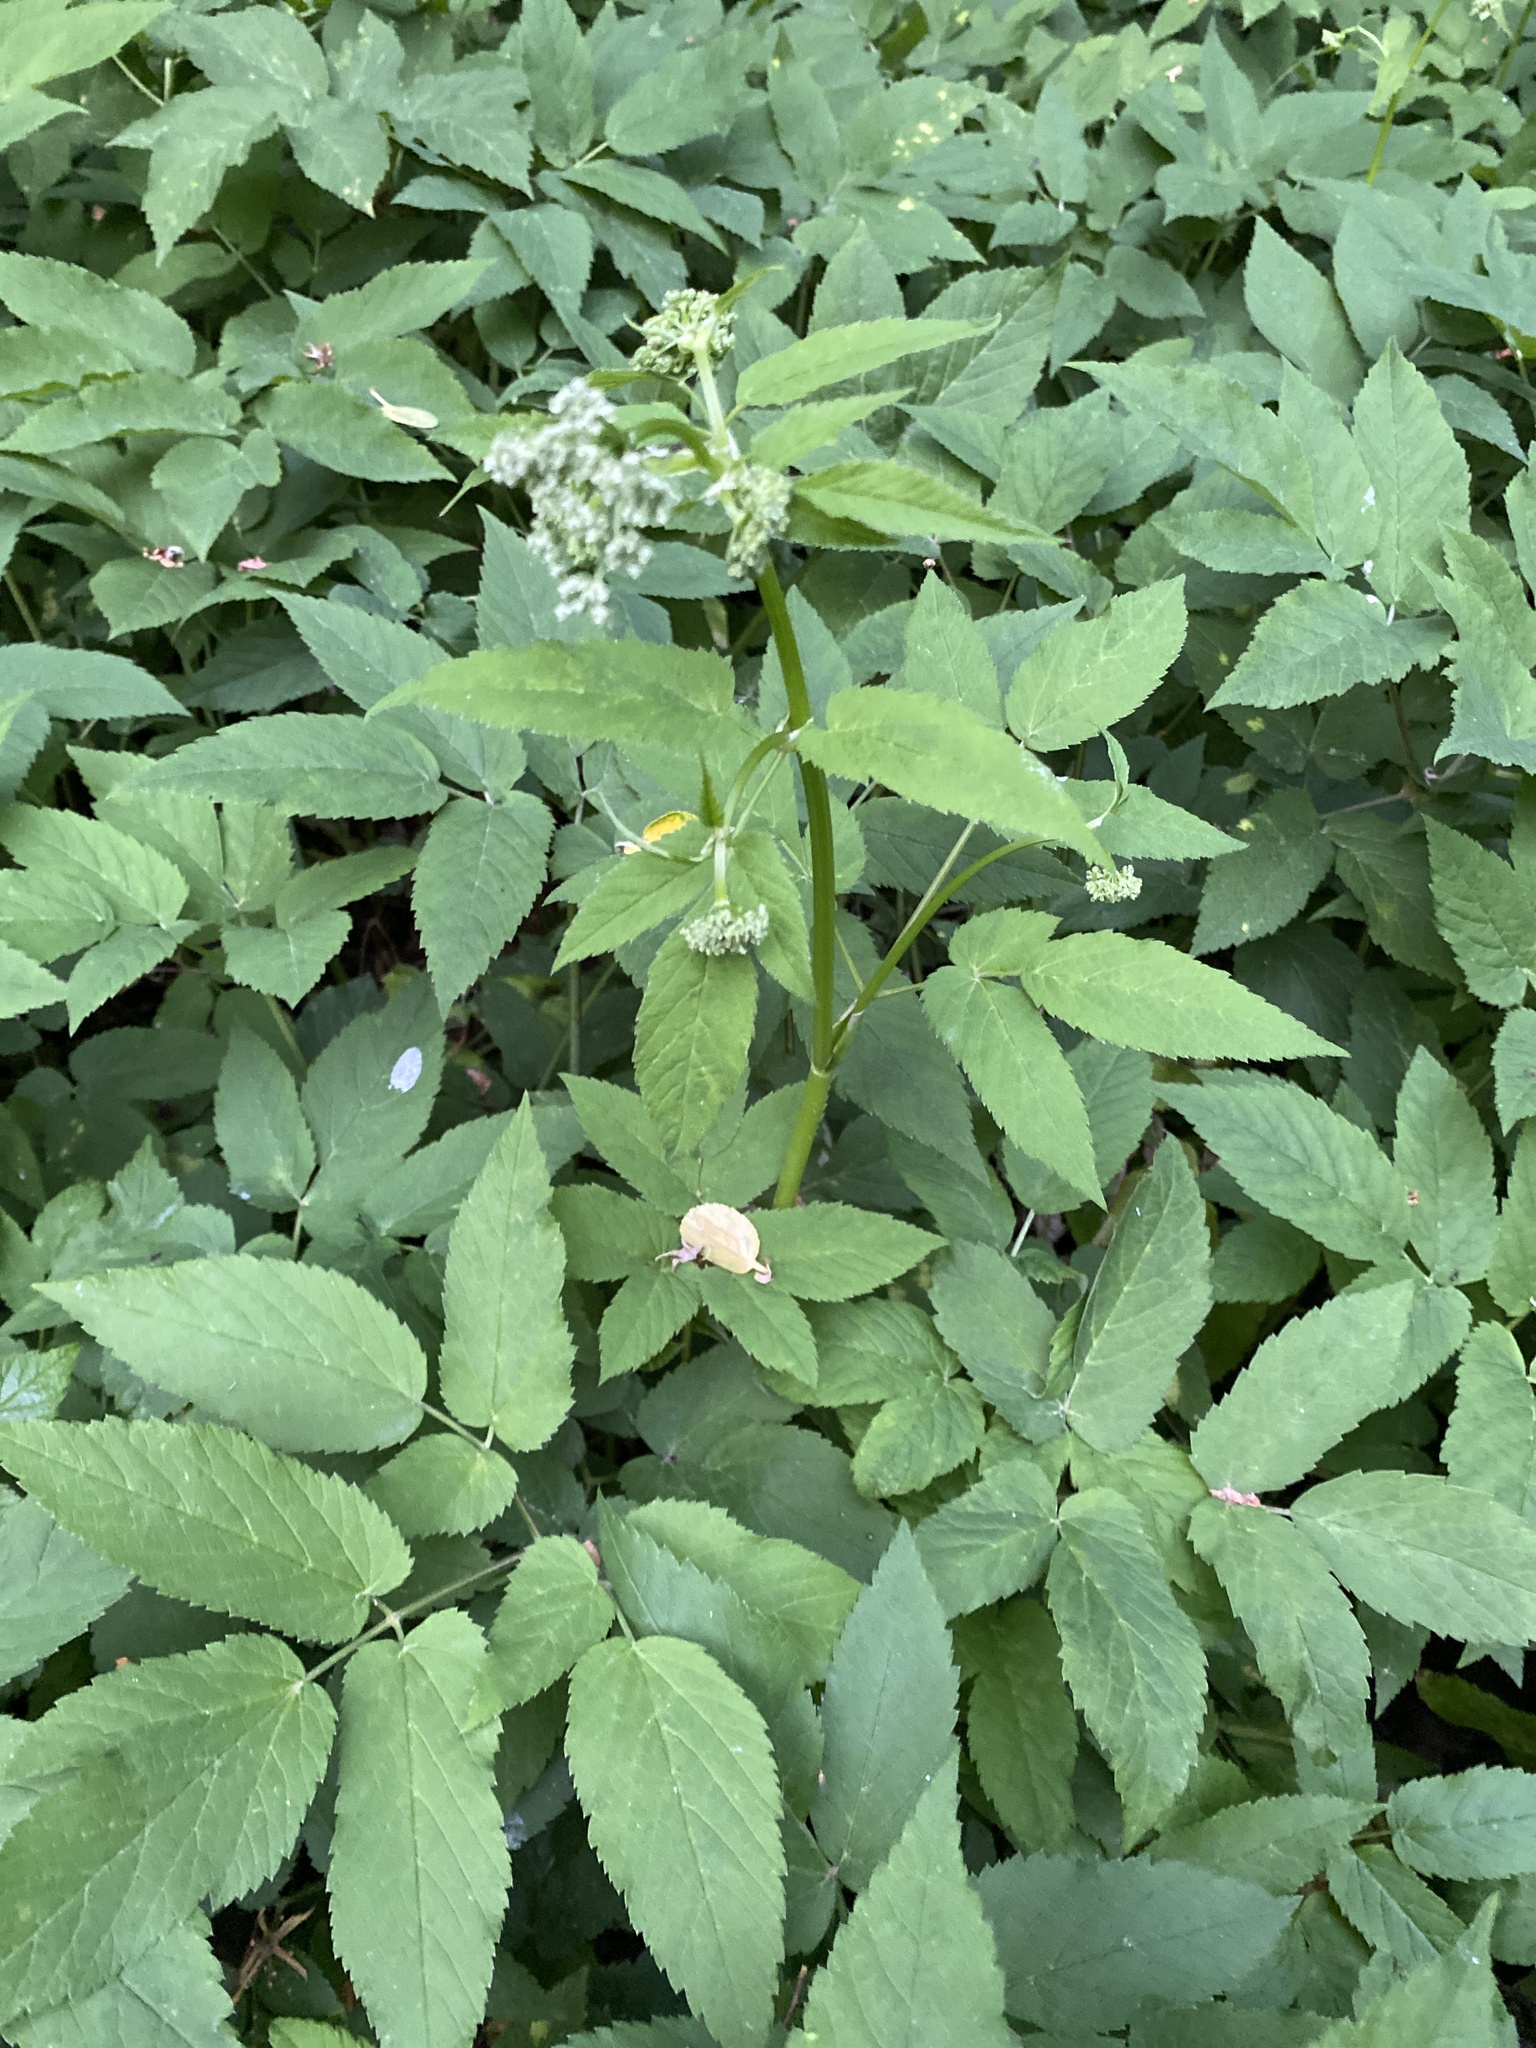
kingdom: Plantae
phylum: Tracheophyta
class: Magnoliopsida
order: Apiales
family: Apiaceae
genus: Aegopodium
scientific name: Aegopodium podagraria
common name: Ground-elder
